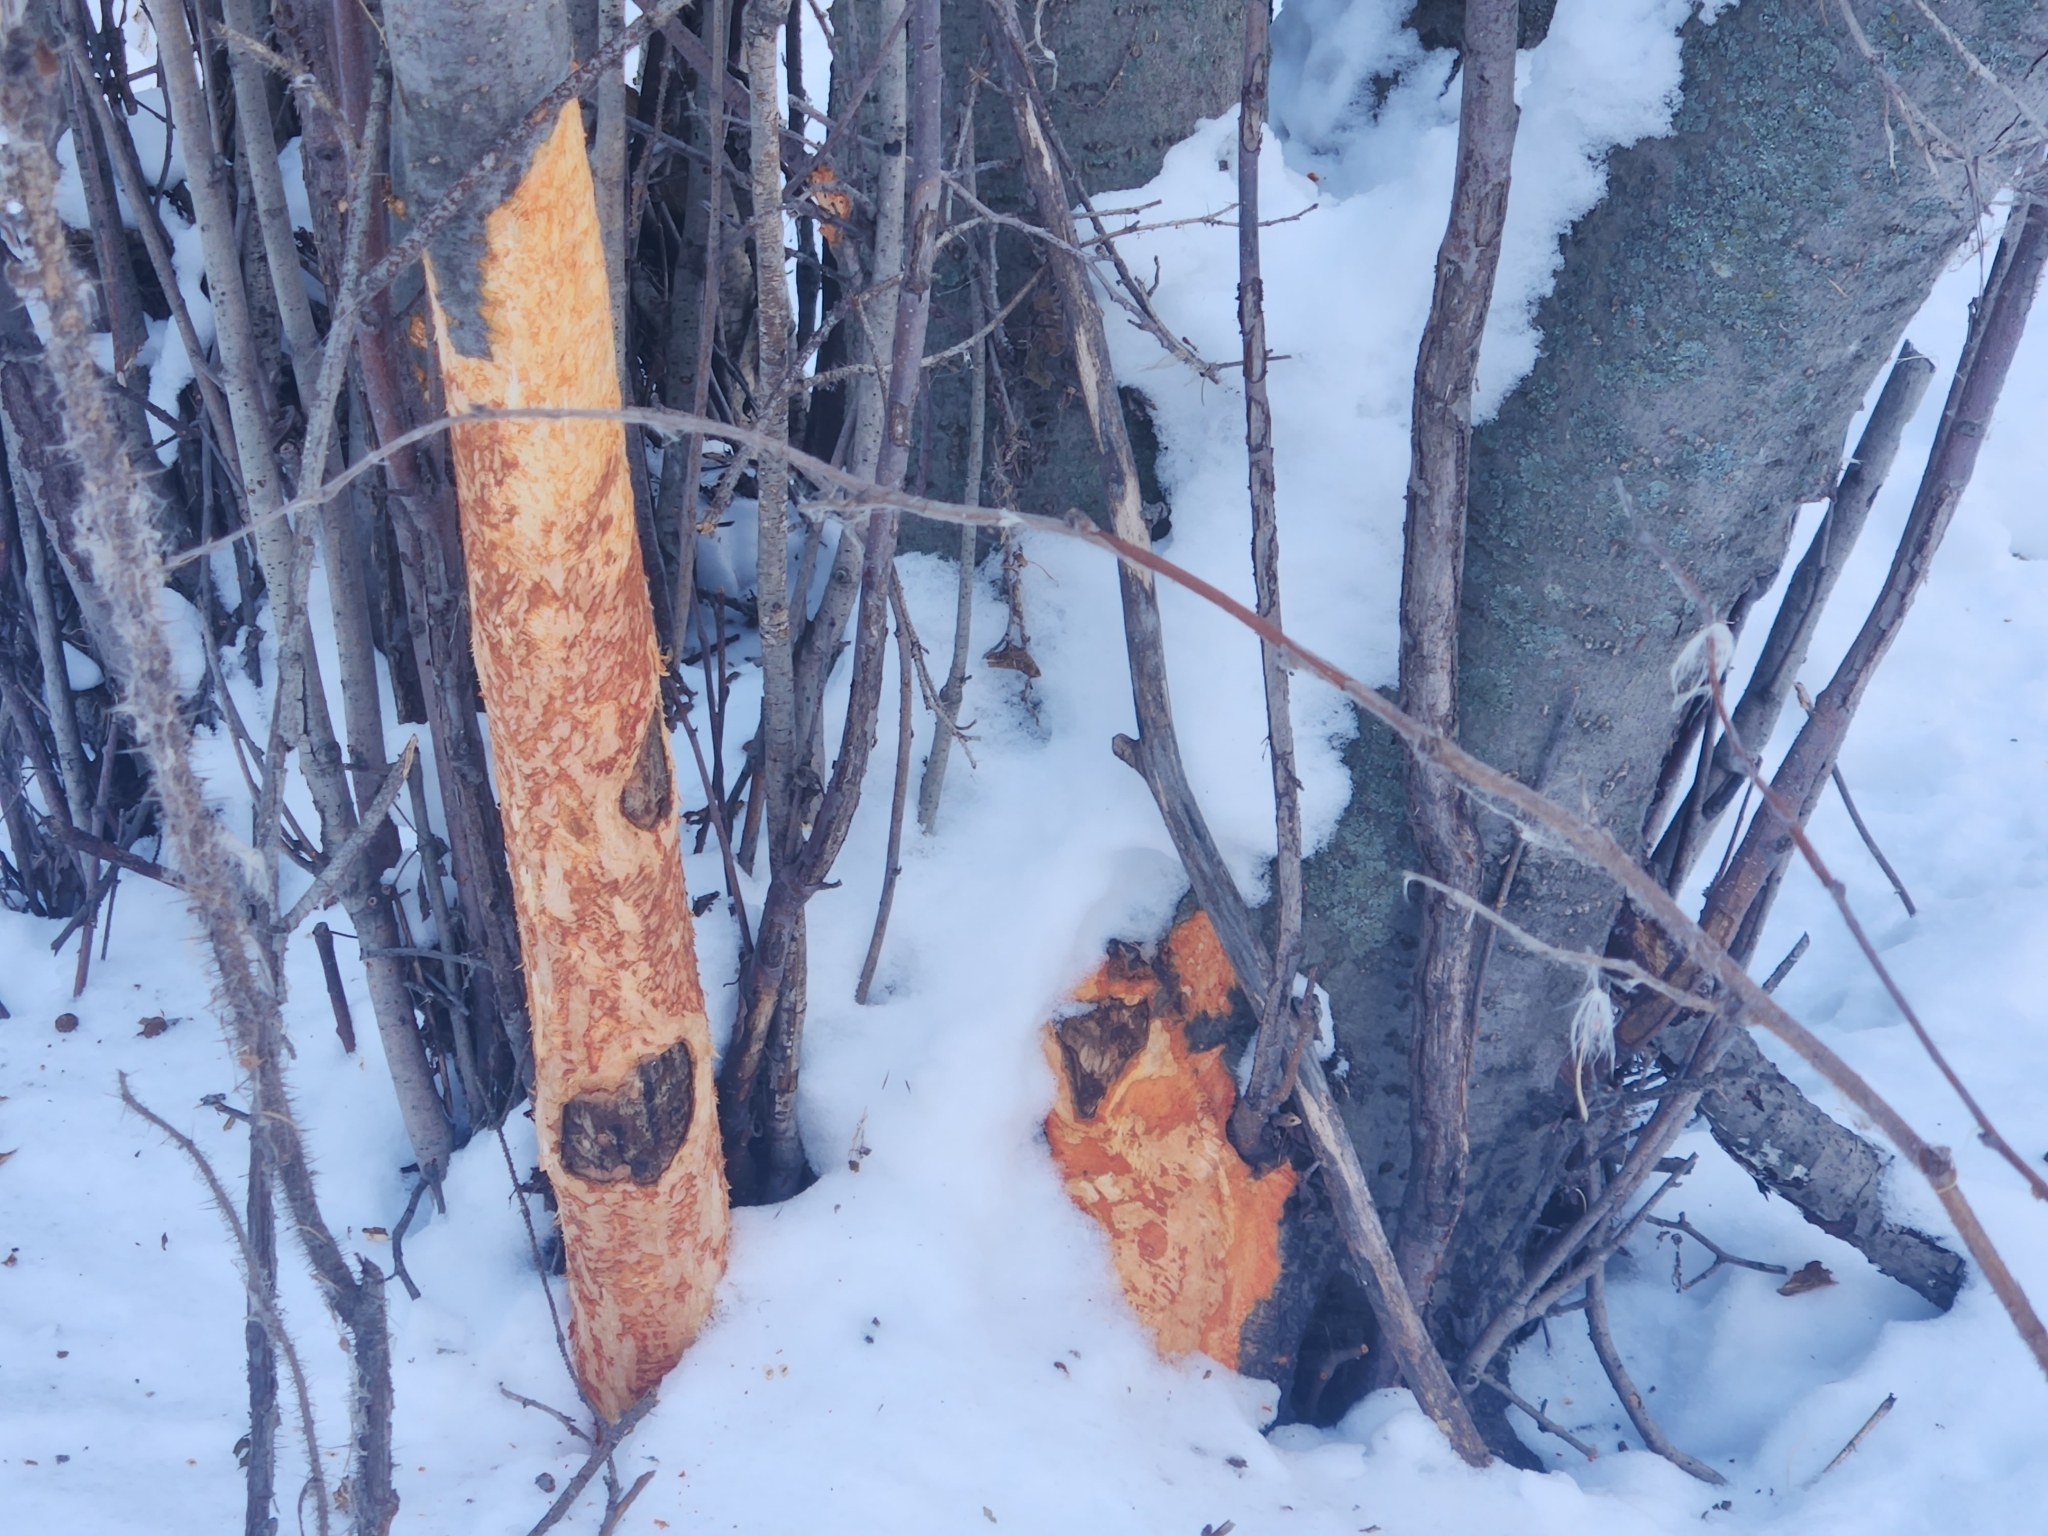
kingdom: Animalia
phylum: Chordata
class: Mammalia
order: Rodentia
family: Erethizontidae
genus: Erethizon
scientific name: Erethizon dorsatus
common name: North american porcupine
